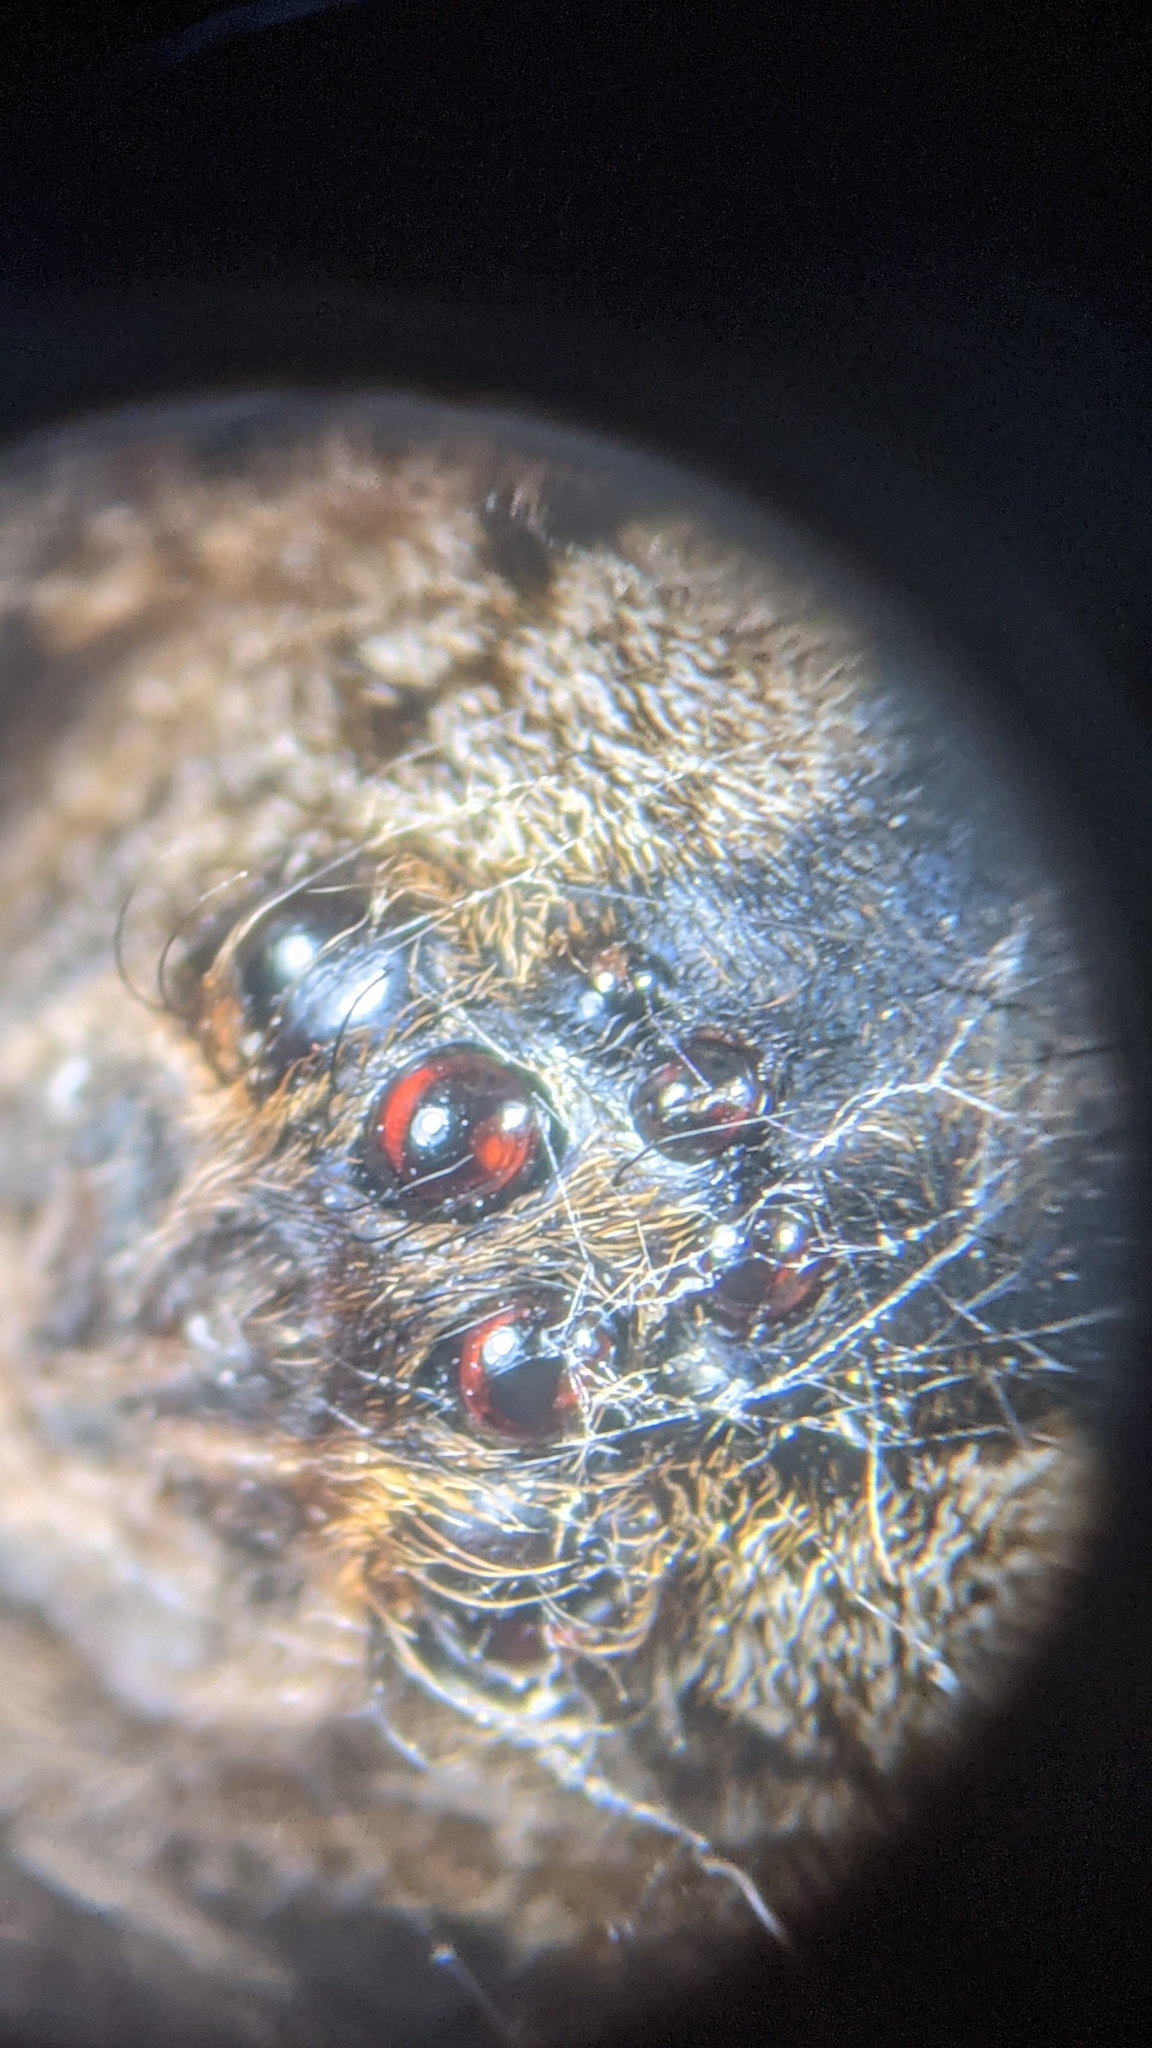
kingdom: Animalia
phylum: Arthropoda
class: Arachnida
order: Araneae
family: Pisauridae
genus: Dolomedes
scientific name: Dolomedes tenebrosus
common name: Dark fishing spider
